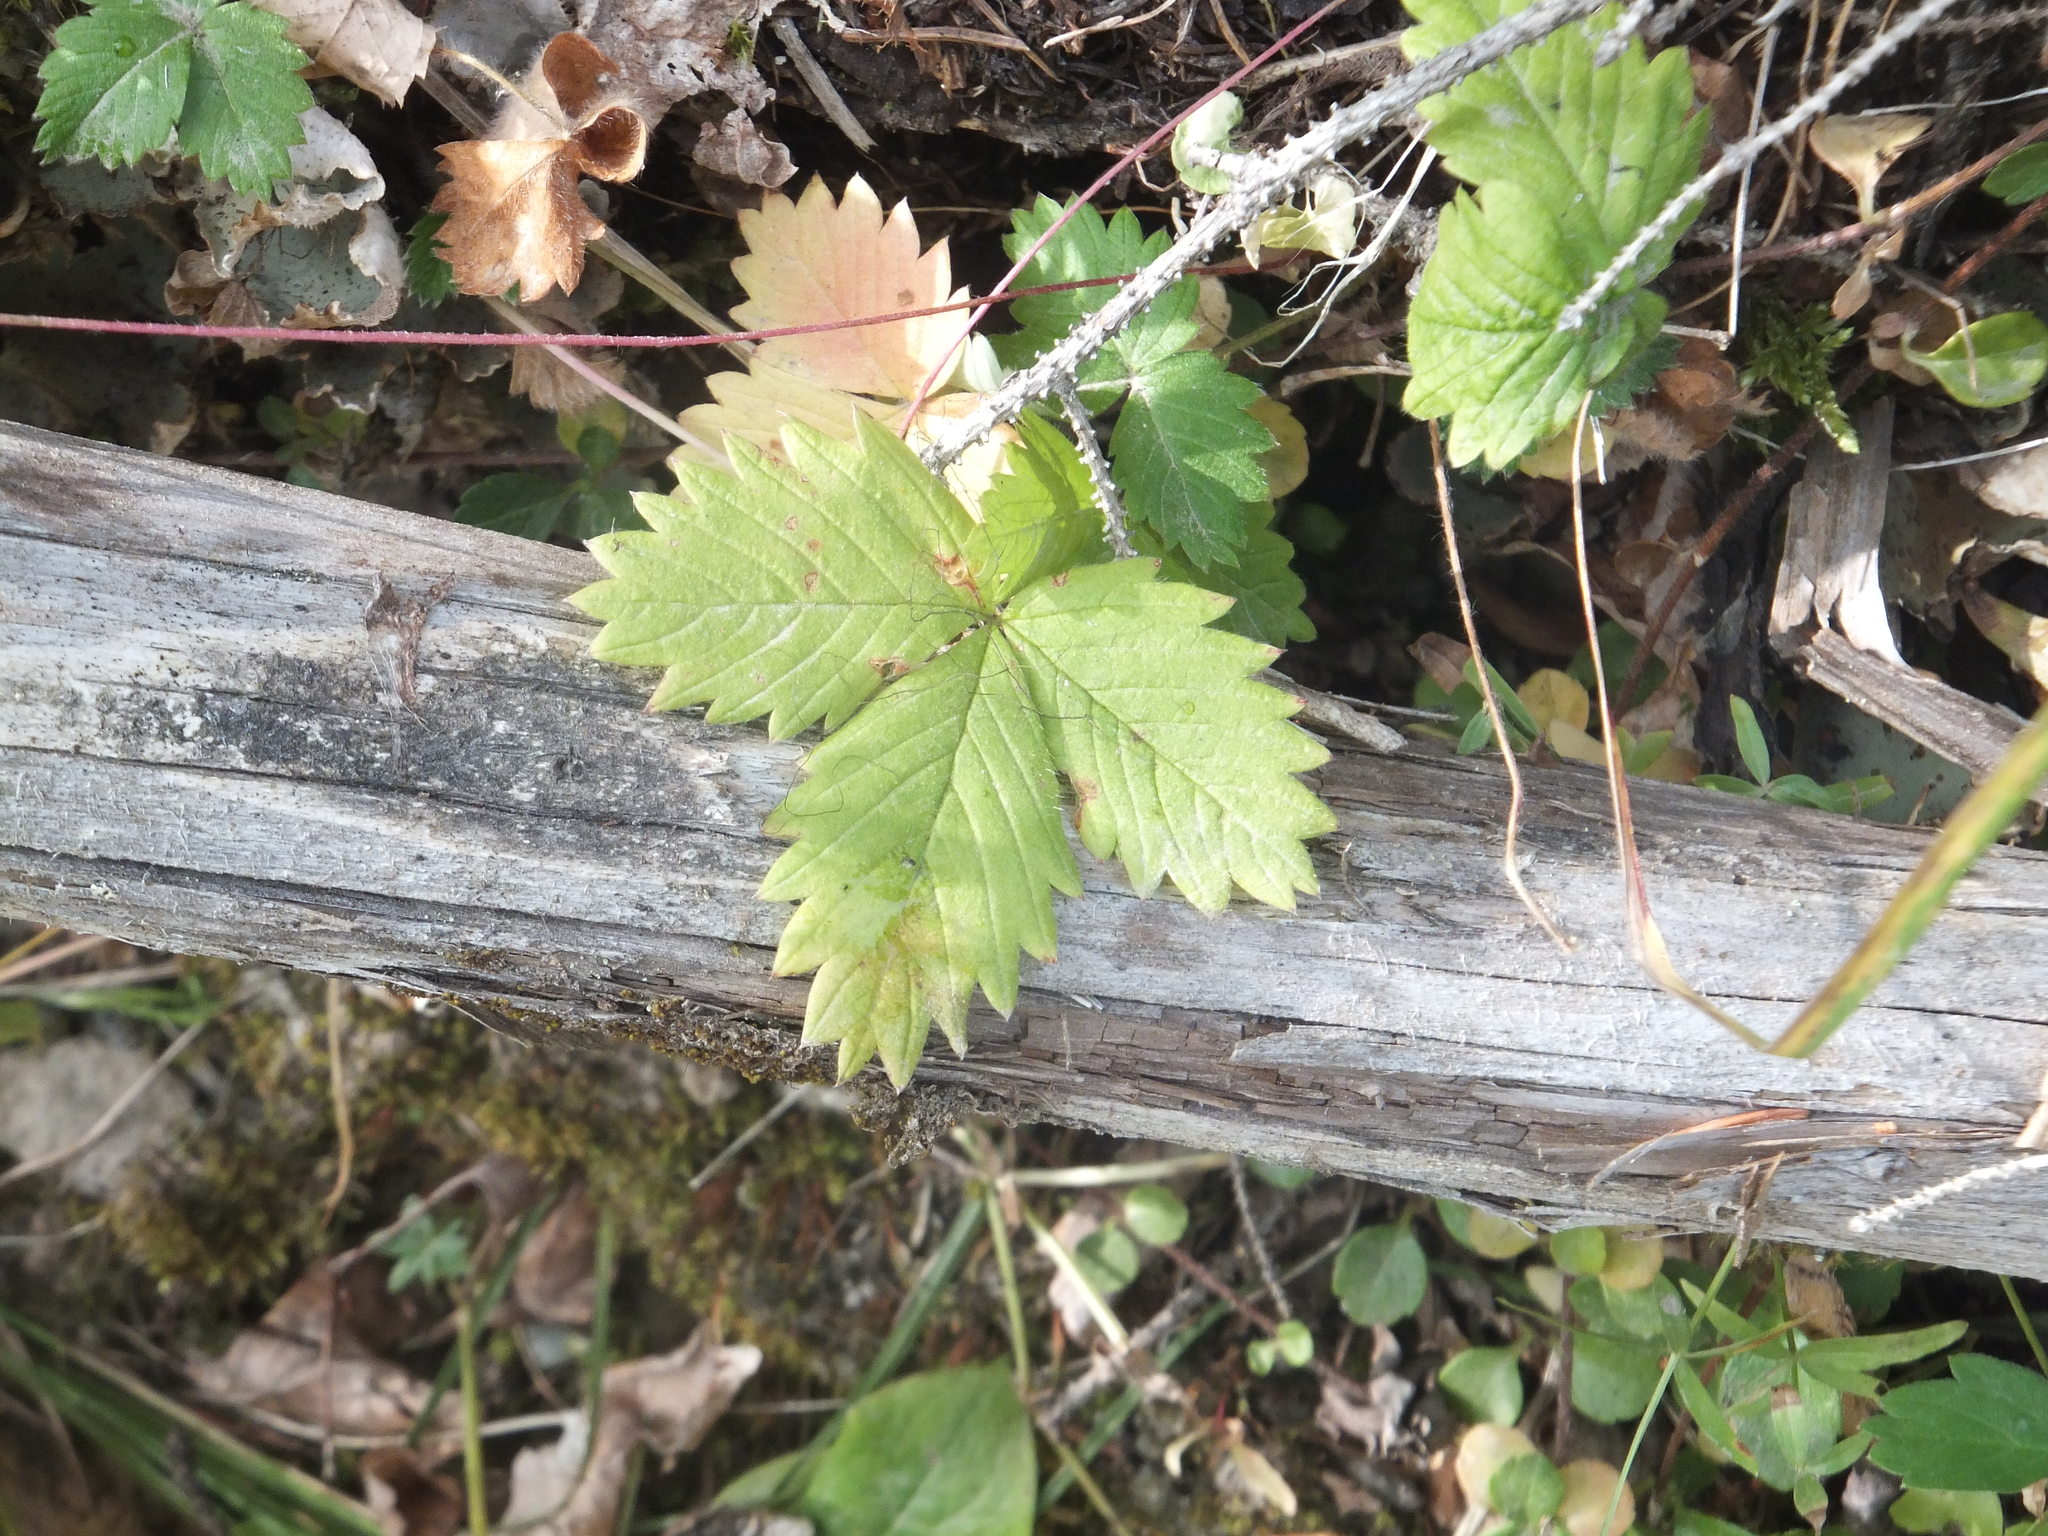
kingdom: Plantae
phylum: Tracheophyta
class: Magnoliopsida
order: Rosales
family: Rosaceae
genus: Fragaria
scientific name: Fragaria vesca
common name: Wild strawberry
